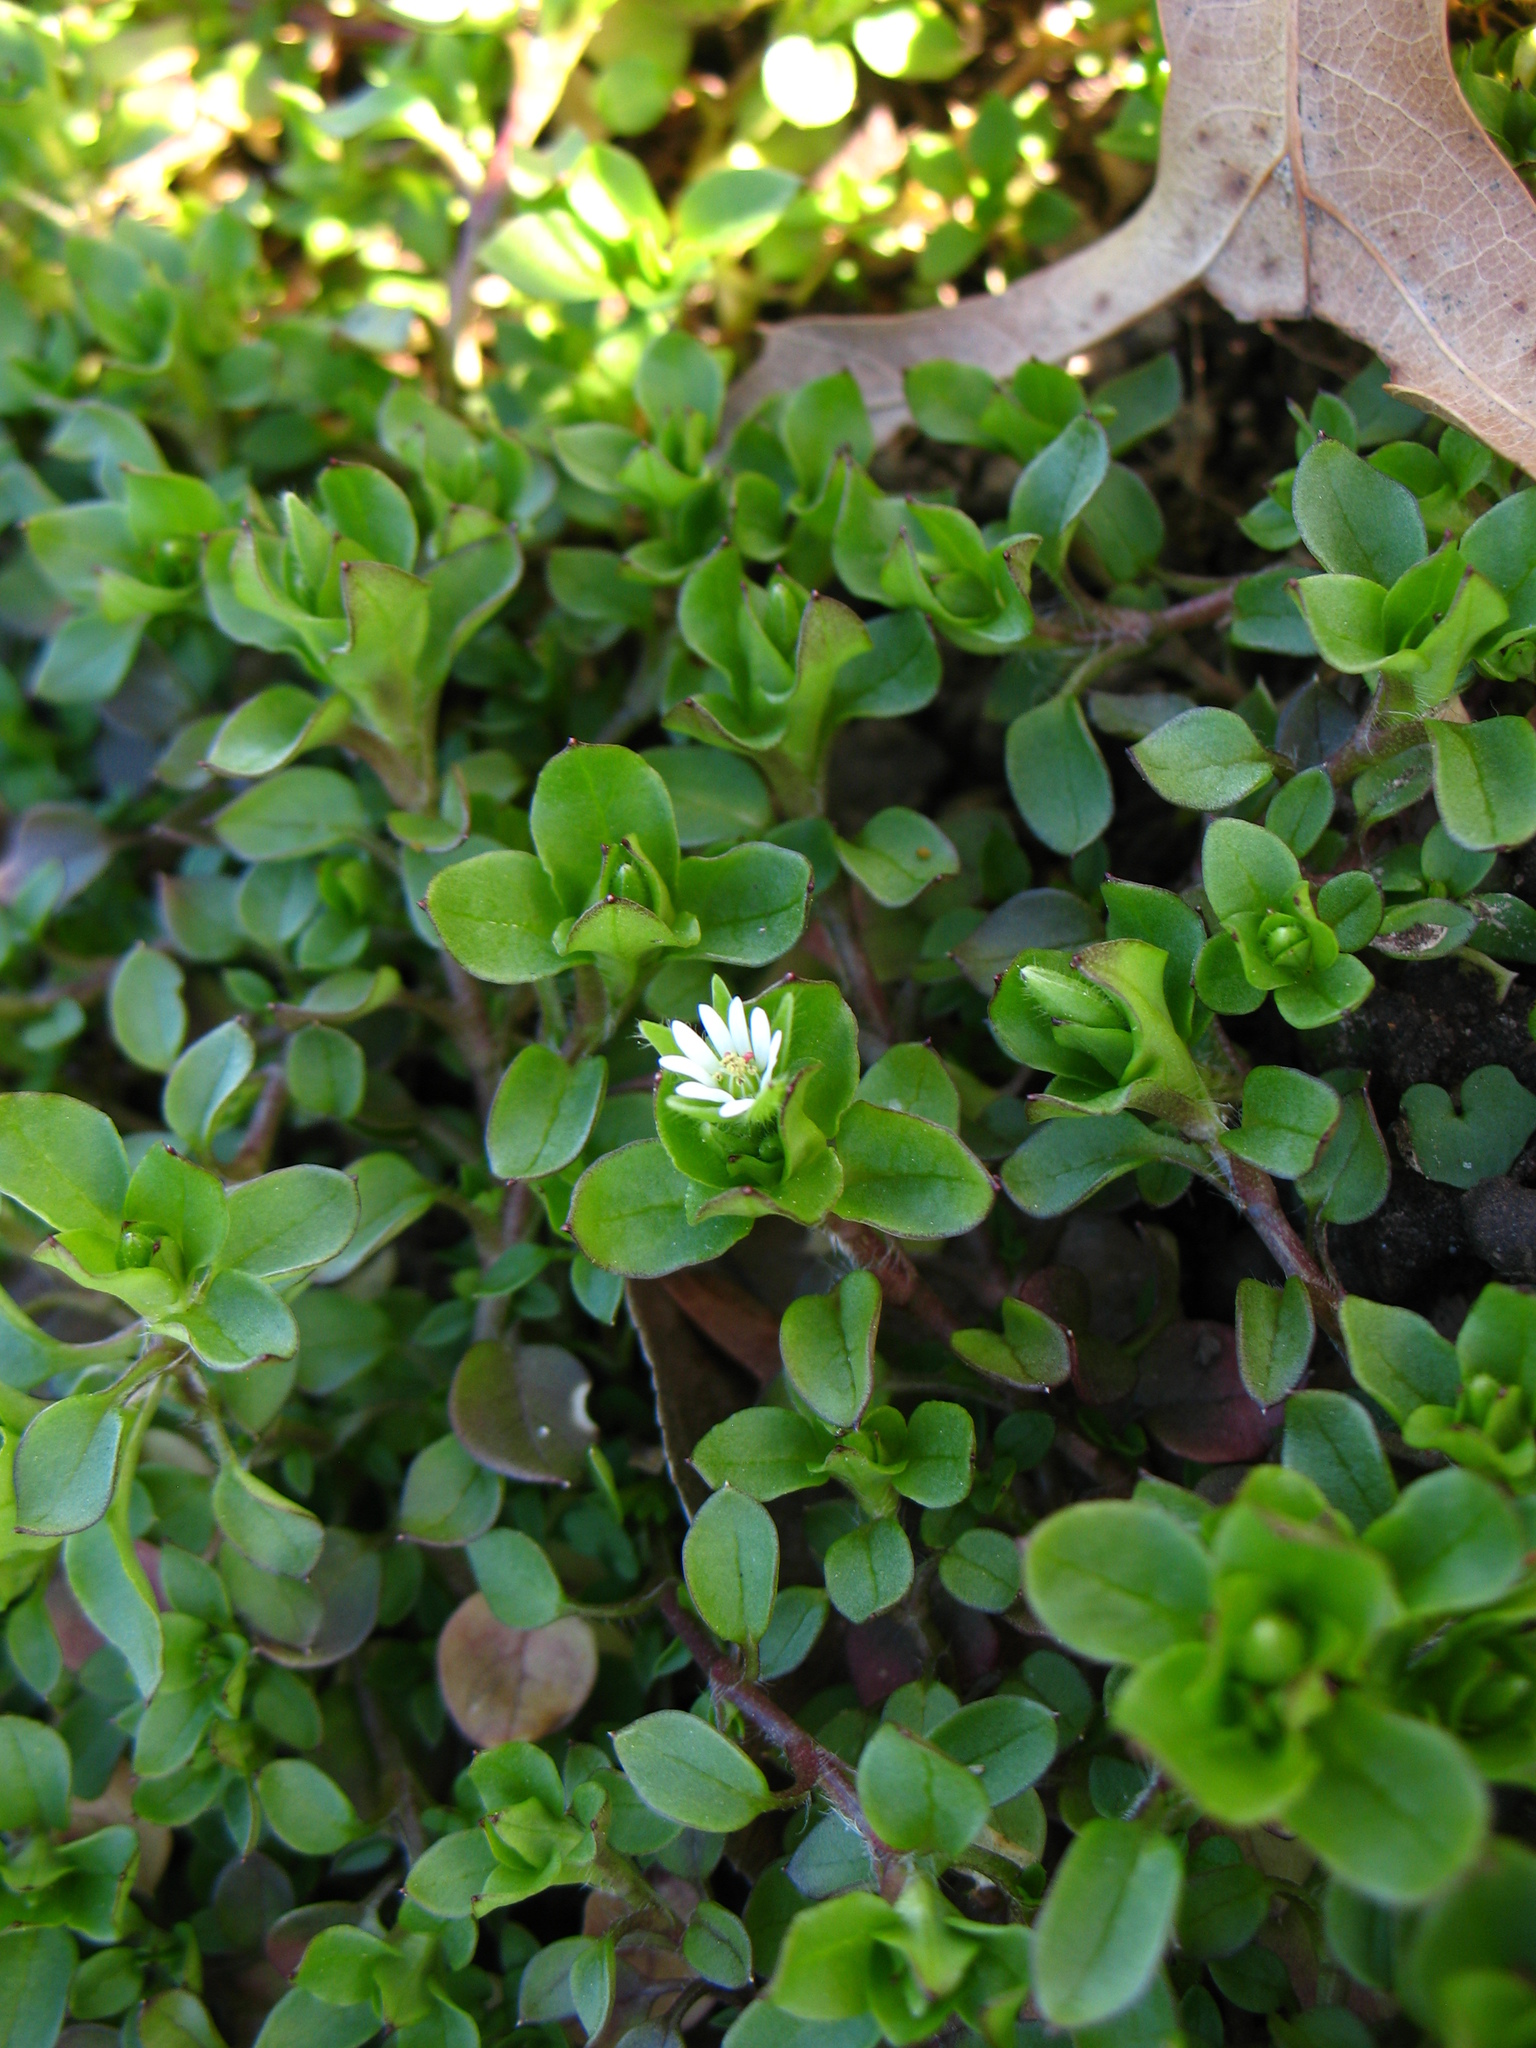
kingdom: Plantae
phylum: Tracheophyta
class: Magnoliopsida
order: Caryophyllales
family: Caryophyllaceae
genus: Stellaria
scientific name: Stellaria media
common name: Common chickweed
